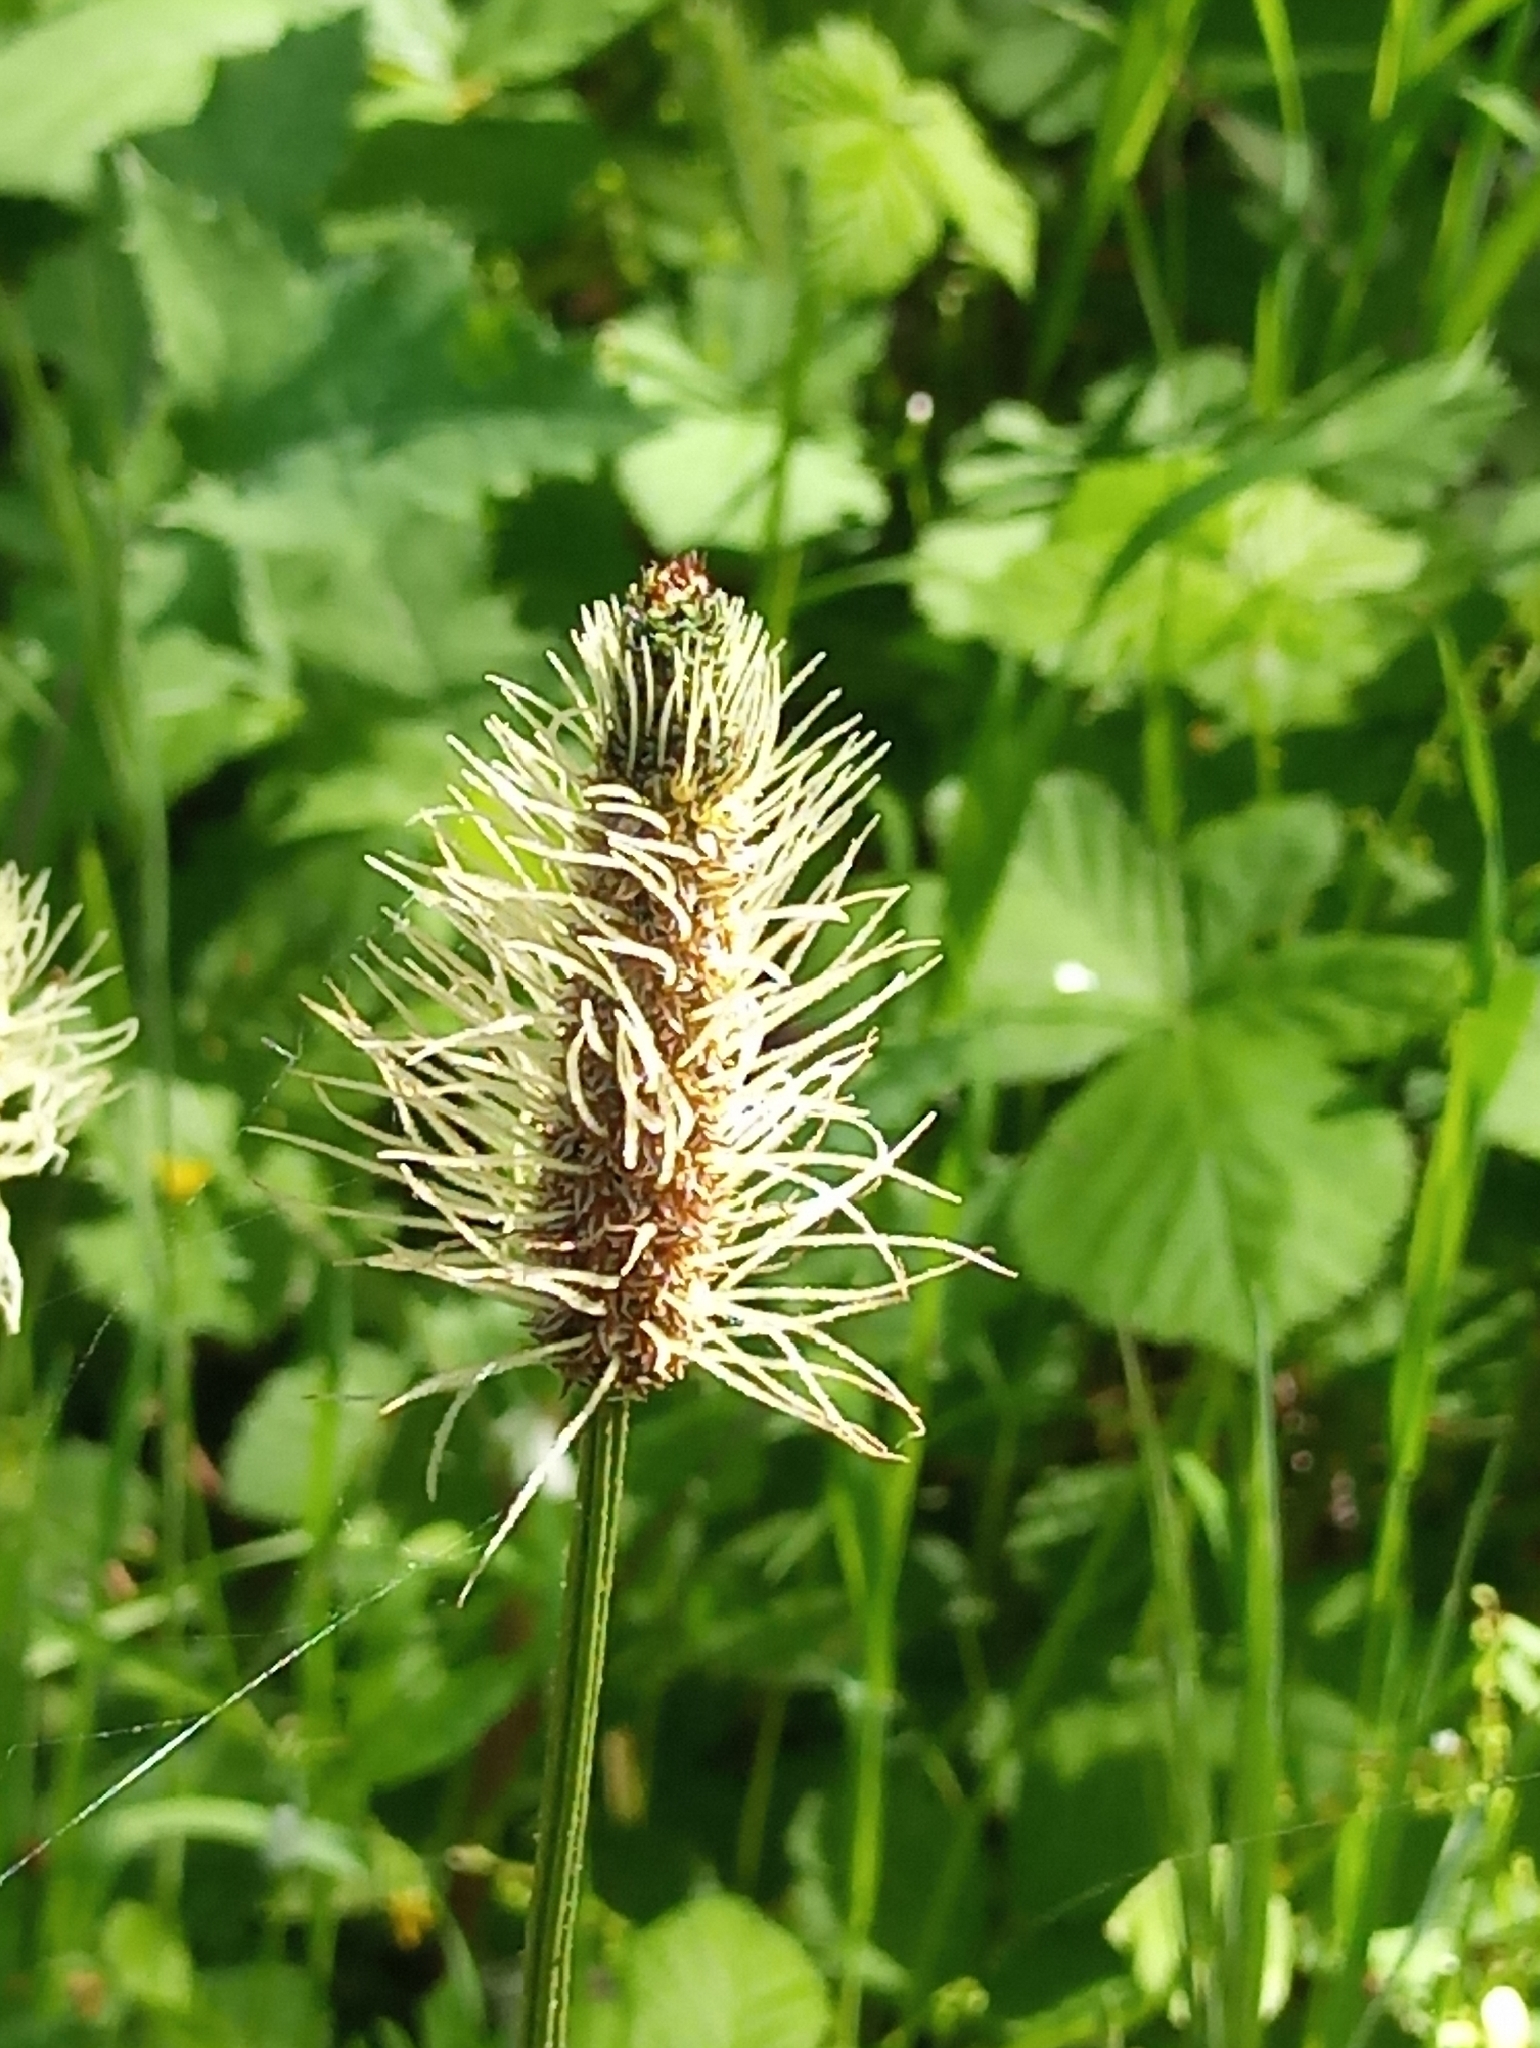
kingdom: Plantae
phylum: Tracheophyta
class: Magnoliopsida
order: Lamiales
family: Plantaginaceae
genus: Plantago
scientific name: Plantago lanceolata
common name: Ribwort plantain
